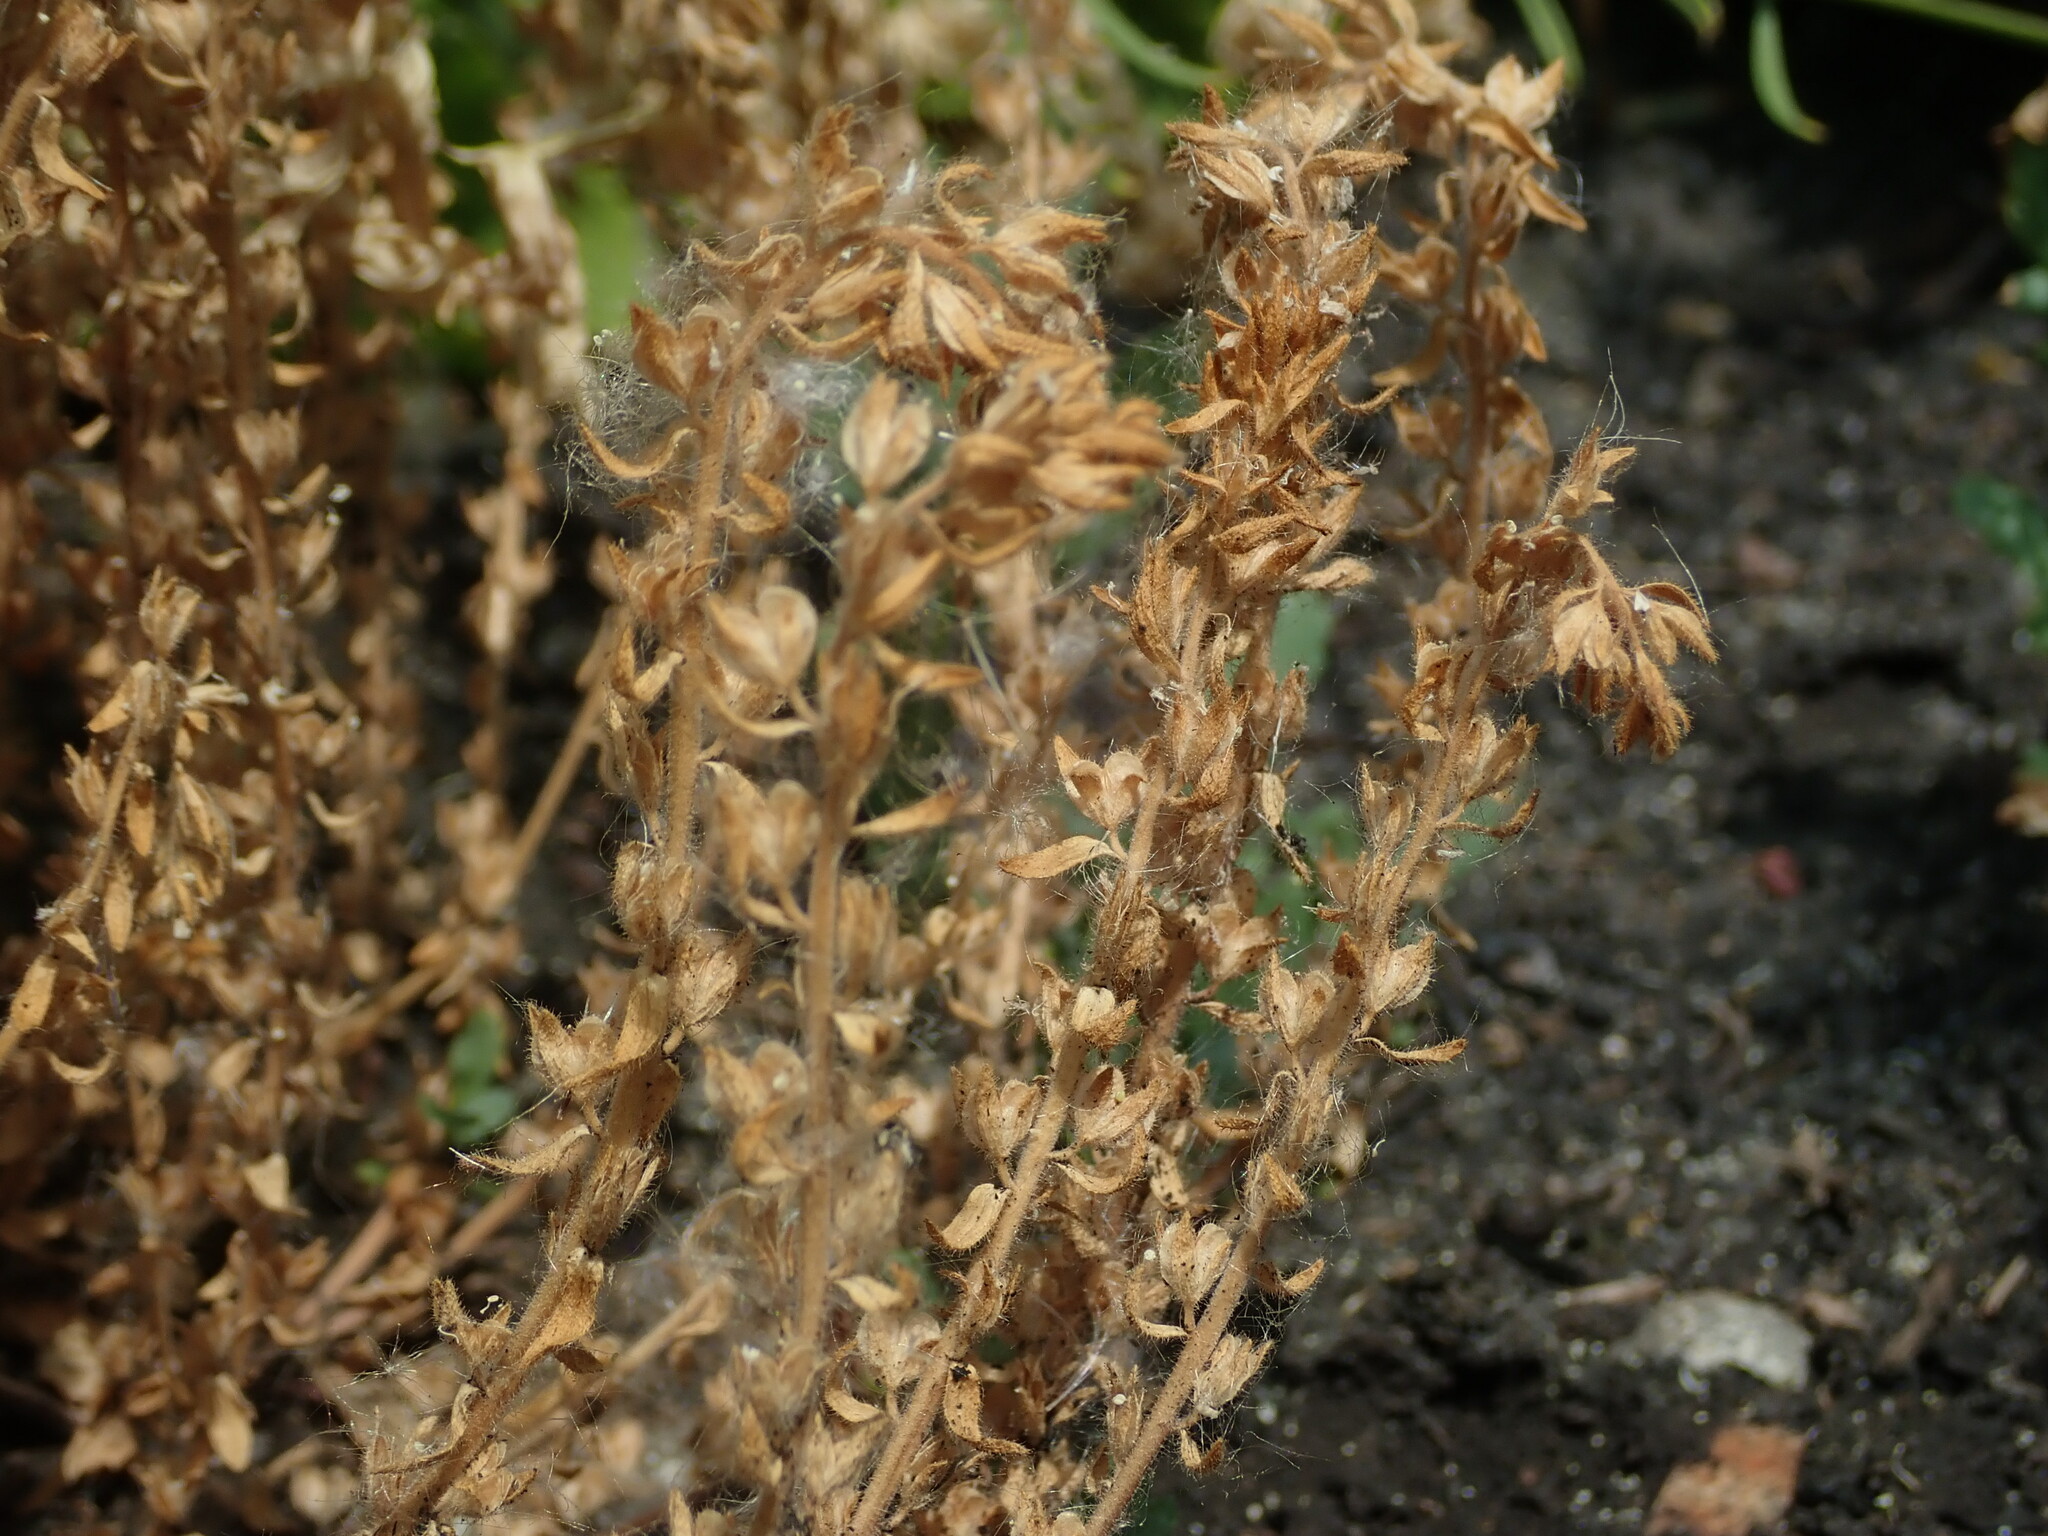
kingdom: Plantae
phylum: Tracheophyta
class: Magnoliopsida
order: Lamiales
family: Plantaginaceae
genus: Veronica
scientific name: Veronica arvensis
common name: Corn speedwell
